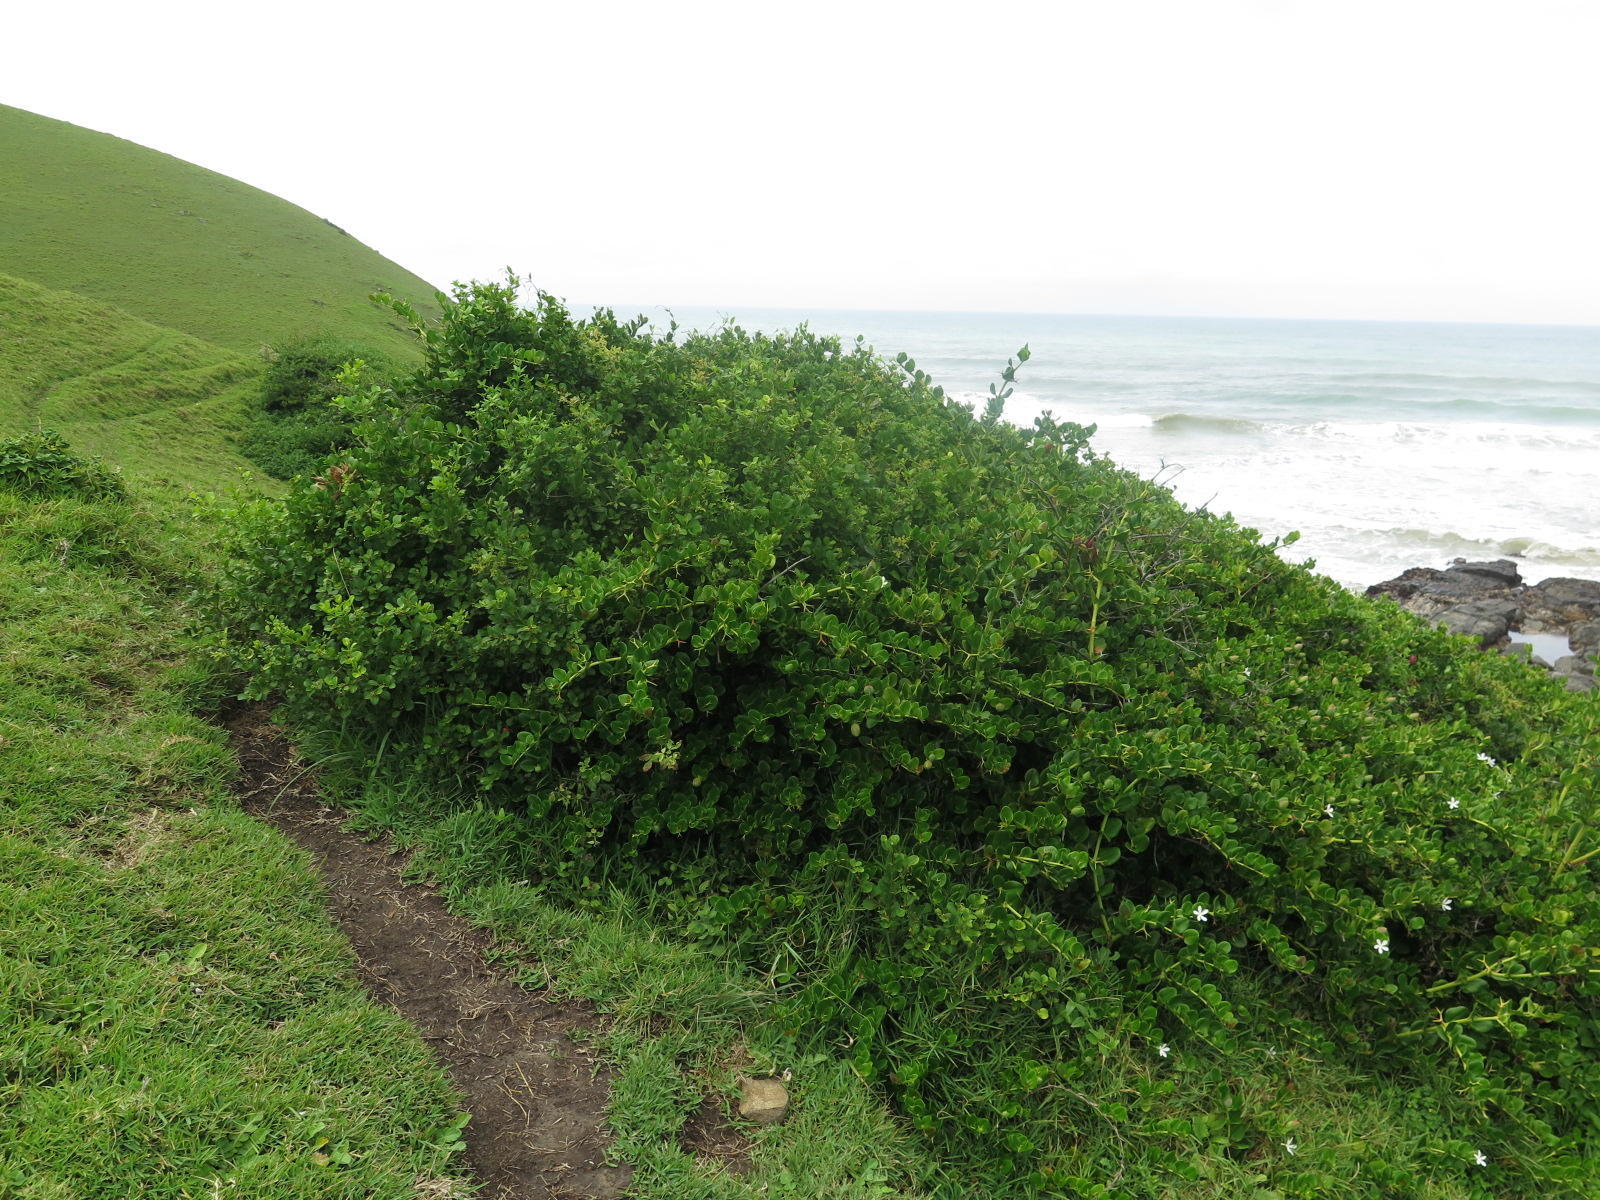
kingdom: Plantae
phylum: Tracheophyta
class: Magnoliopsida
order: Gentianales
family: Apocynaceae
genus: Carissa
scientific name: Carissa macrocarpa
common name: Natal plum
